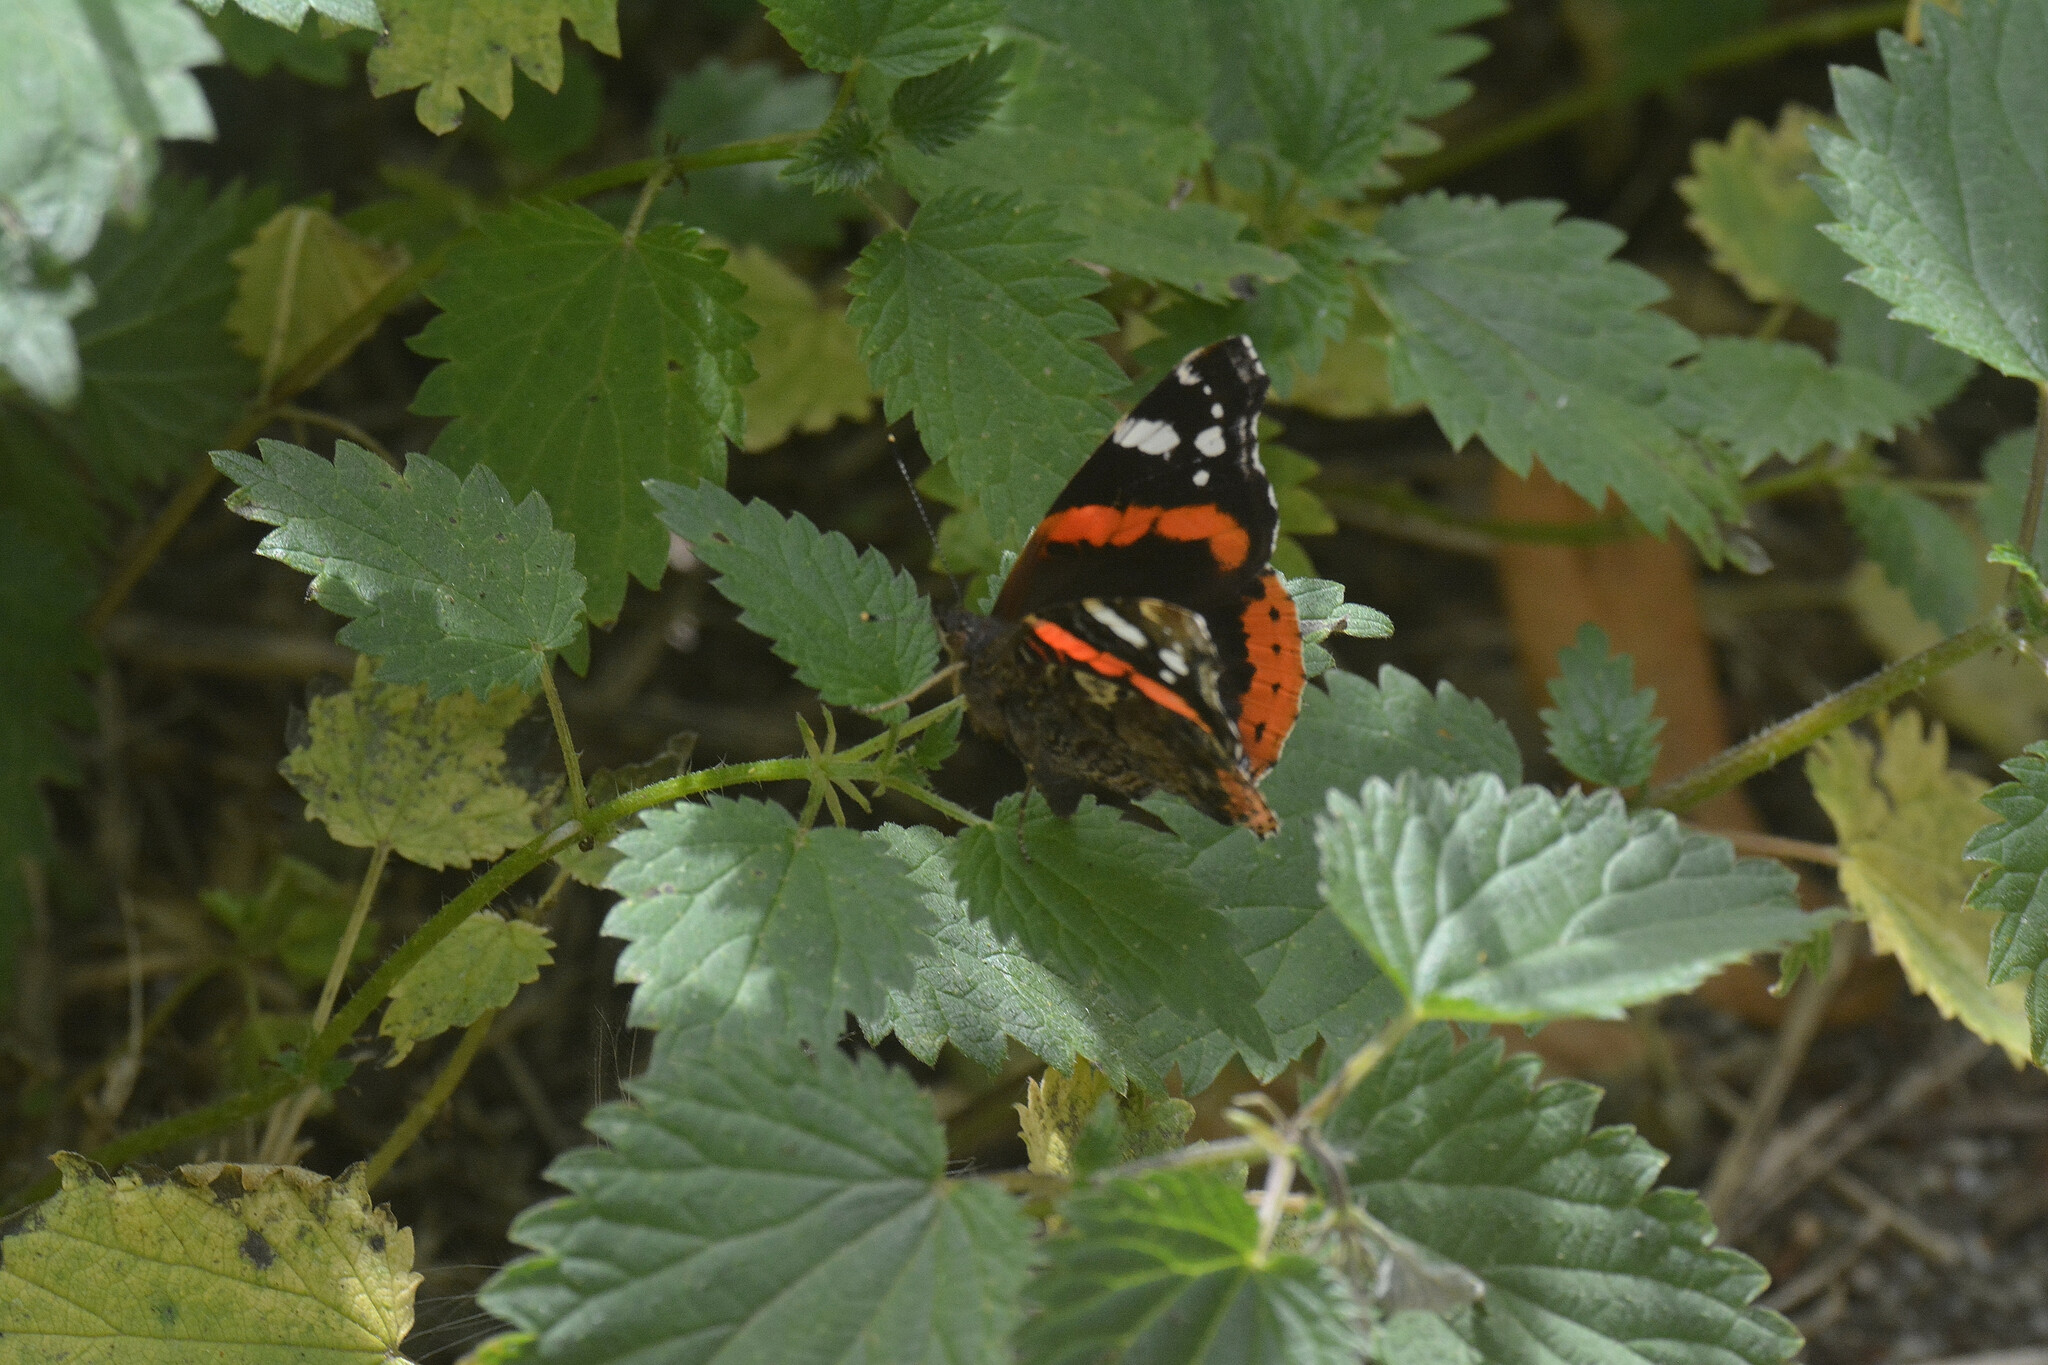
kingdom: Animalia
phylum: Arthropoda
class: Insecta
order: Lepidoptera
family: Nymphalidae
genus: Vanessa
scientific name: Vanessa atalanta
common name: Red admiral
